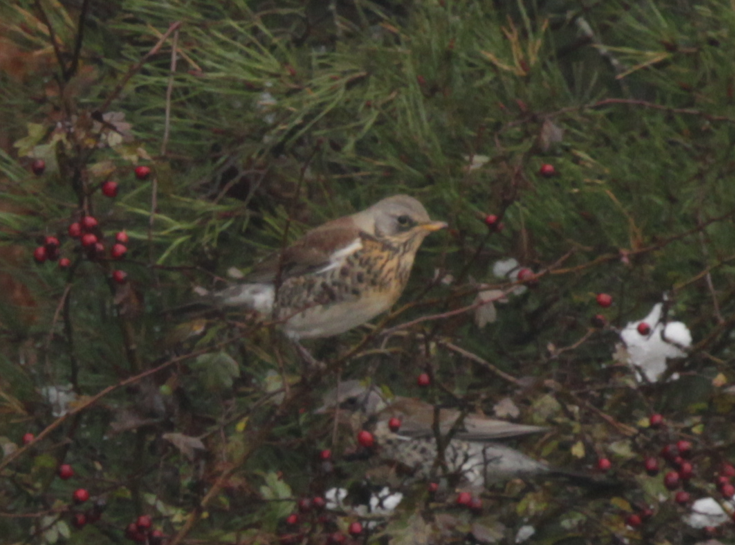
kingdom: Animalia
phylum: Chordata
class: Aves
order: Passeriformes
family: Turdidae
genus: Turdus
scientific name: Turdus pilaris
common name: Fieldfare
